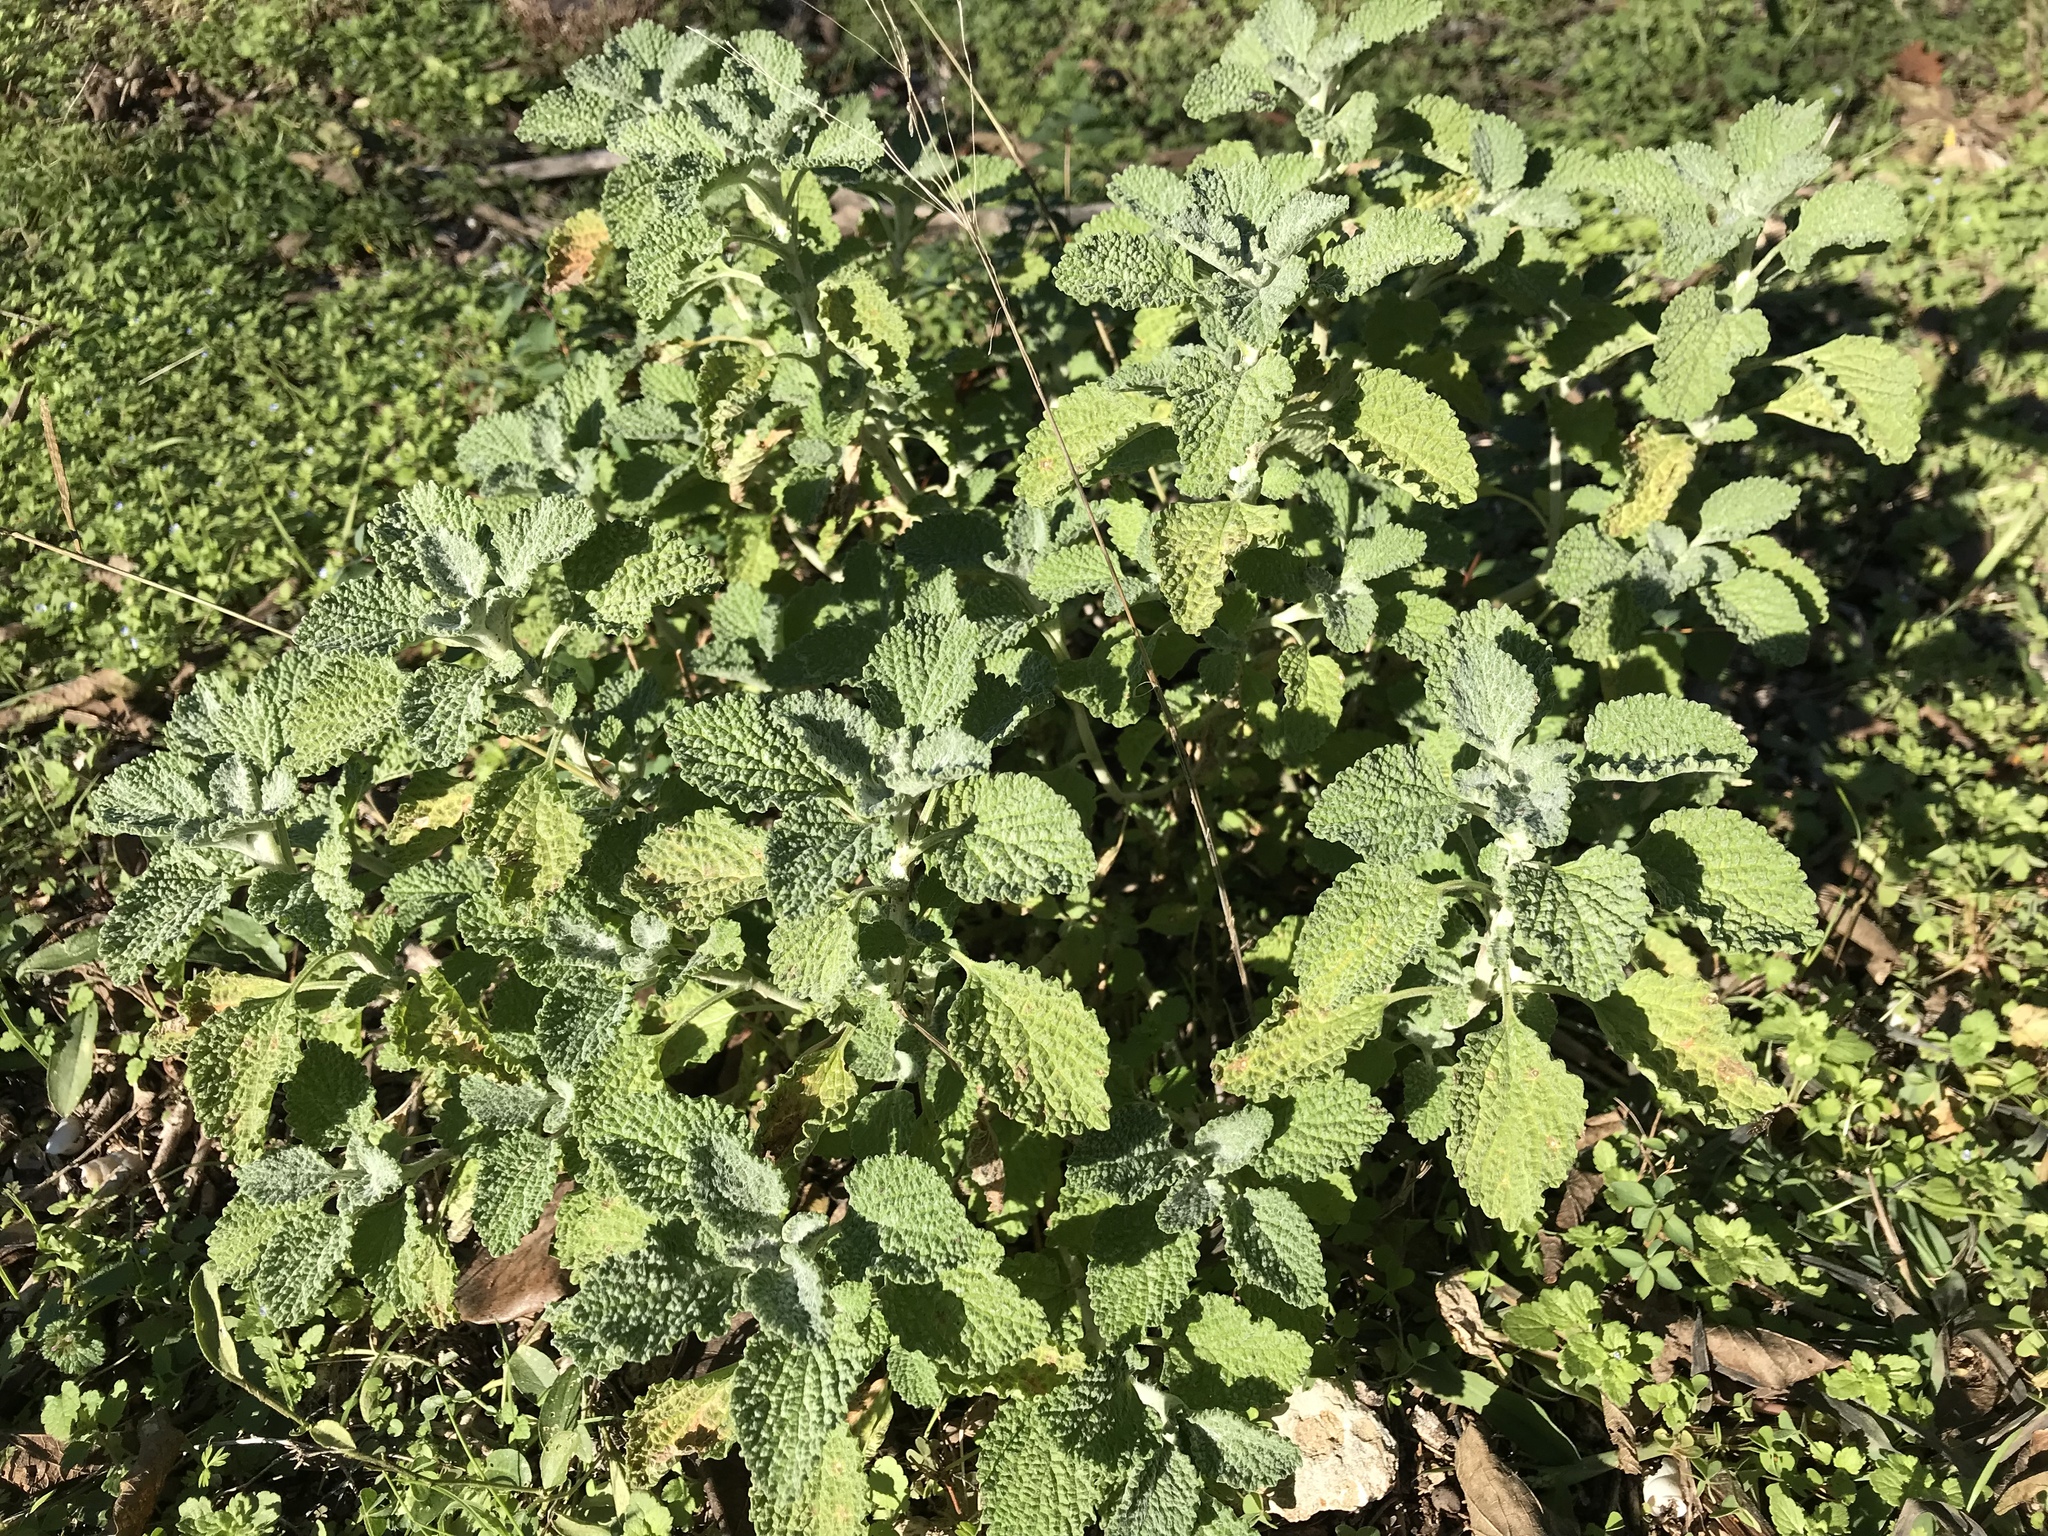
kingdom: Plantae
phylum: Tracheophyta
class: Magnoliopsida
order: Lamiales
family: Lamiaceae
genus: Marrubium
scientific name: Marrubium vulgare
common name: Horehound
